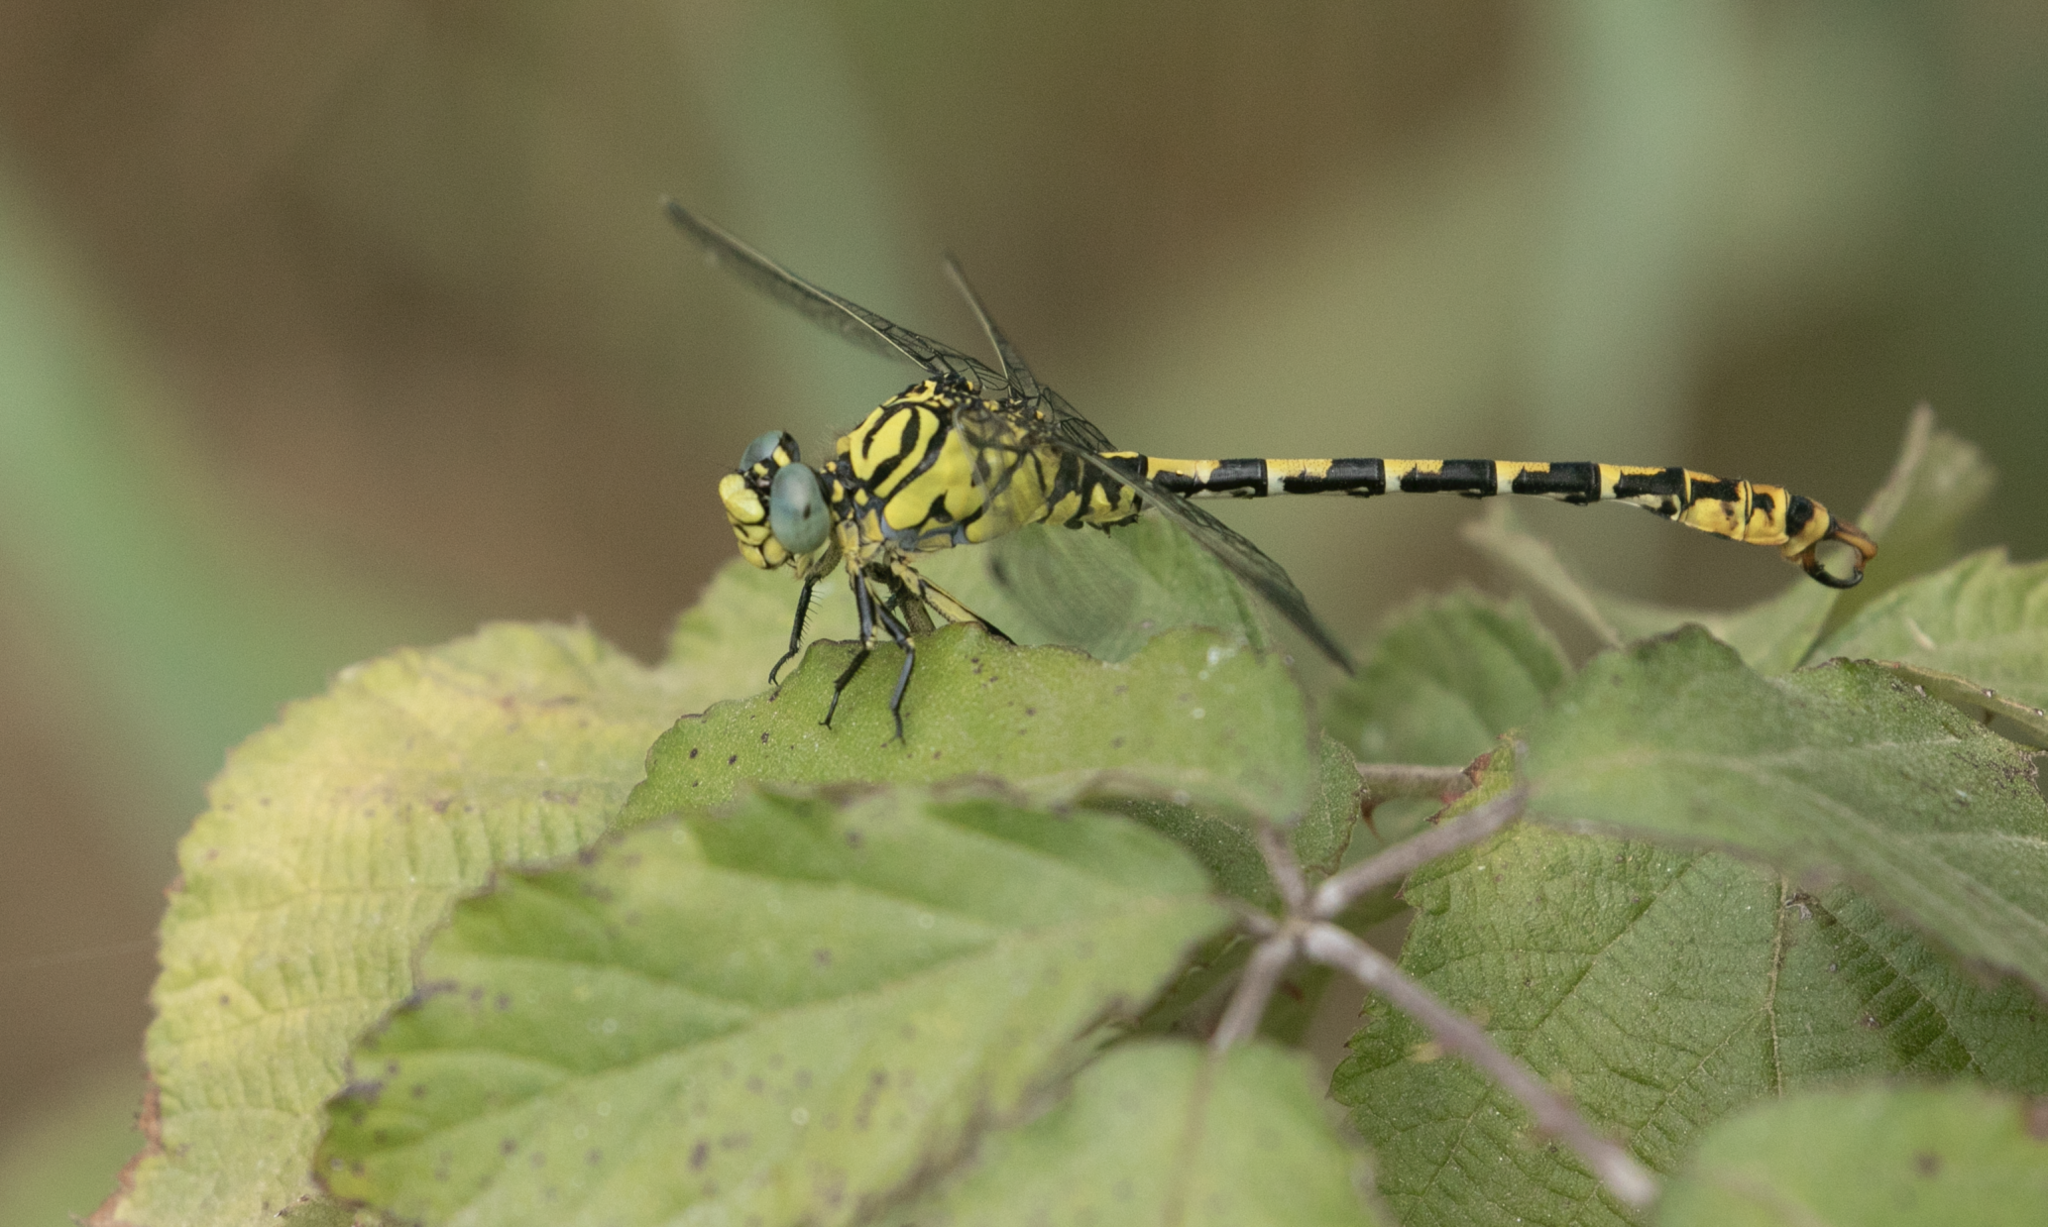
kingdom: Animalia
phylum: Arthropoda
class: Insecta
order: Odonata
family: Gomphidae
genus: Onychogomphus
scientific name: Onychogomphus forcipatus
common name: Small pincertail
